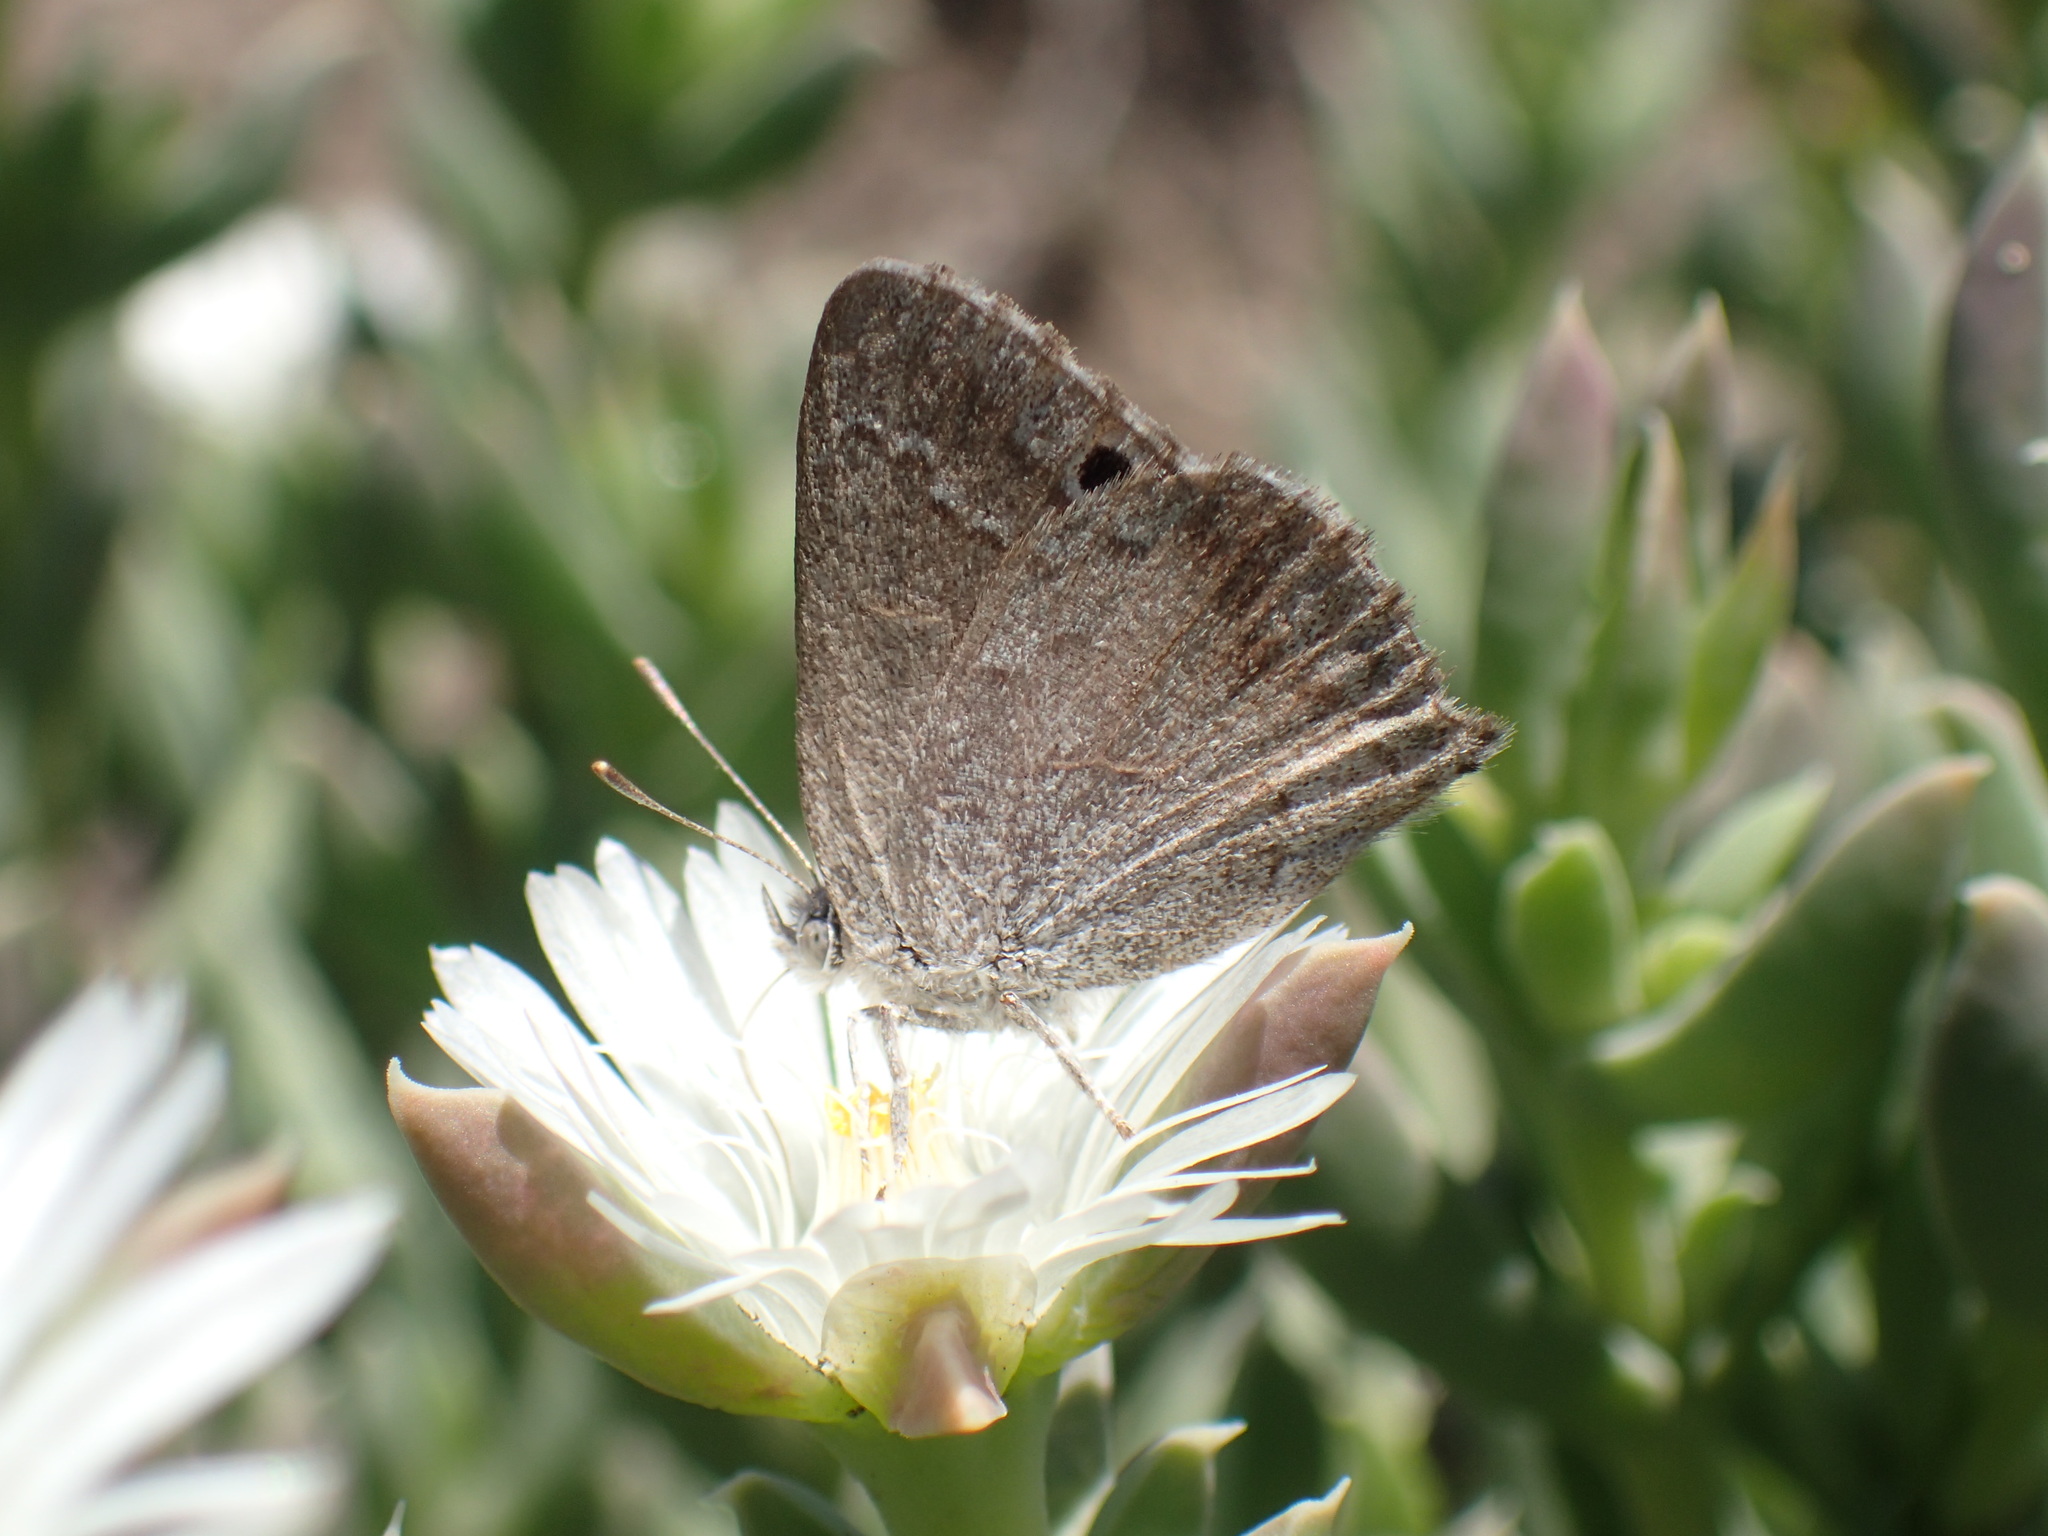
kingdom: Animalia
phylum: Arthropoda
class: Insecta
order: Lepidoptera
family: Lycaenidae
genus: Leptomyrina
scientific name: Leptomyrina lara
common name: Cape black-eye
